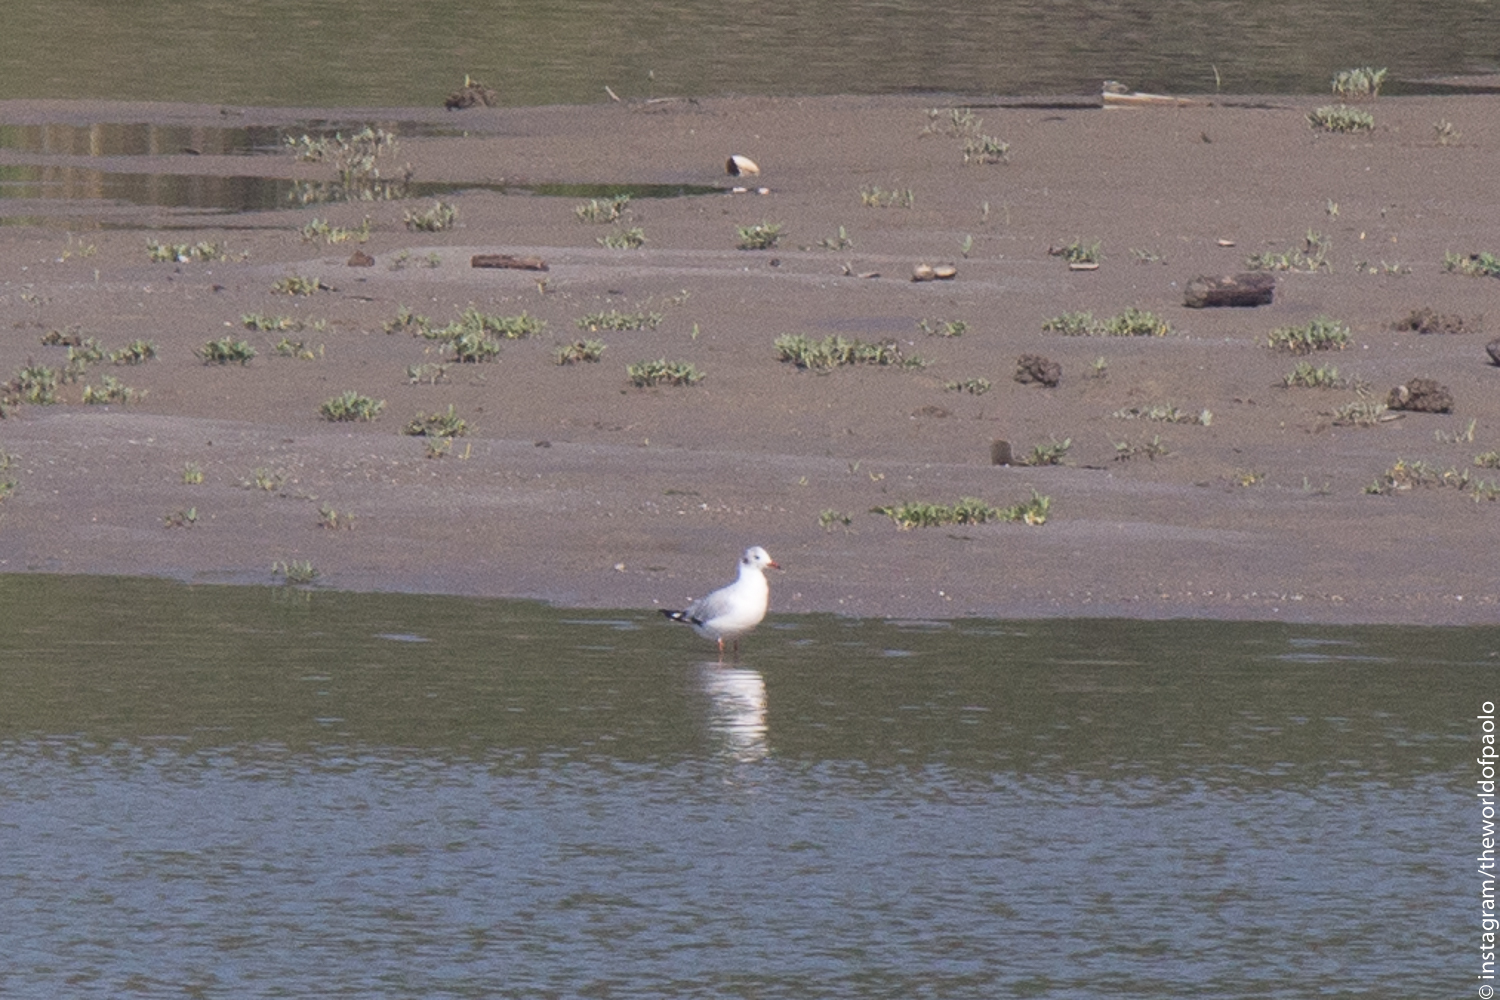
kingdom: Animalia
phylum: Chordata
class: Aves
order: Charadriiformes
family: Laridae
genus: Chroicocephalus
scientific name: Chroicocephalus ridibundus
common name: Black-headed gull
